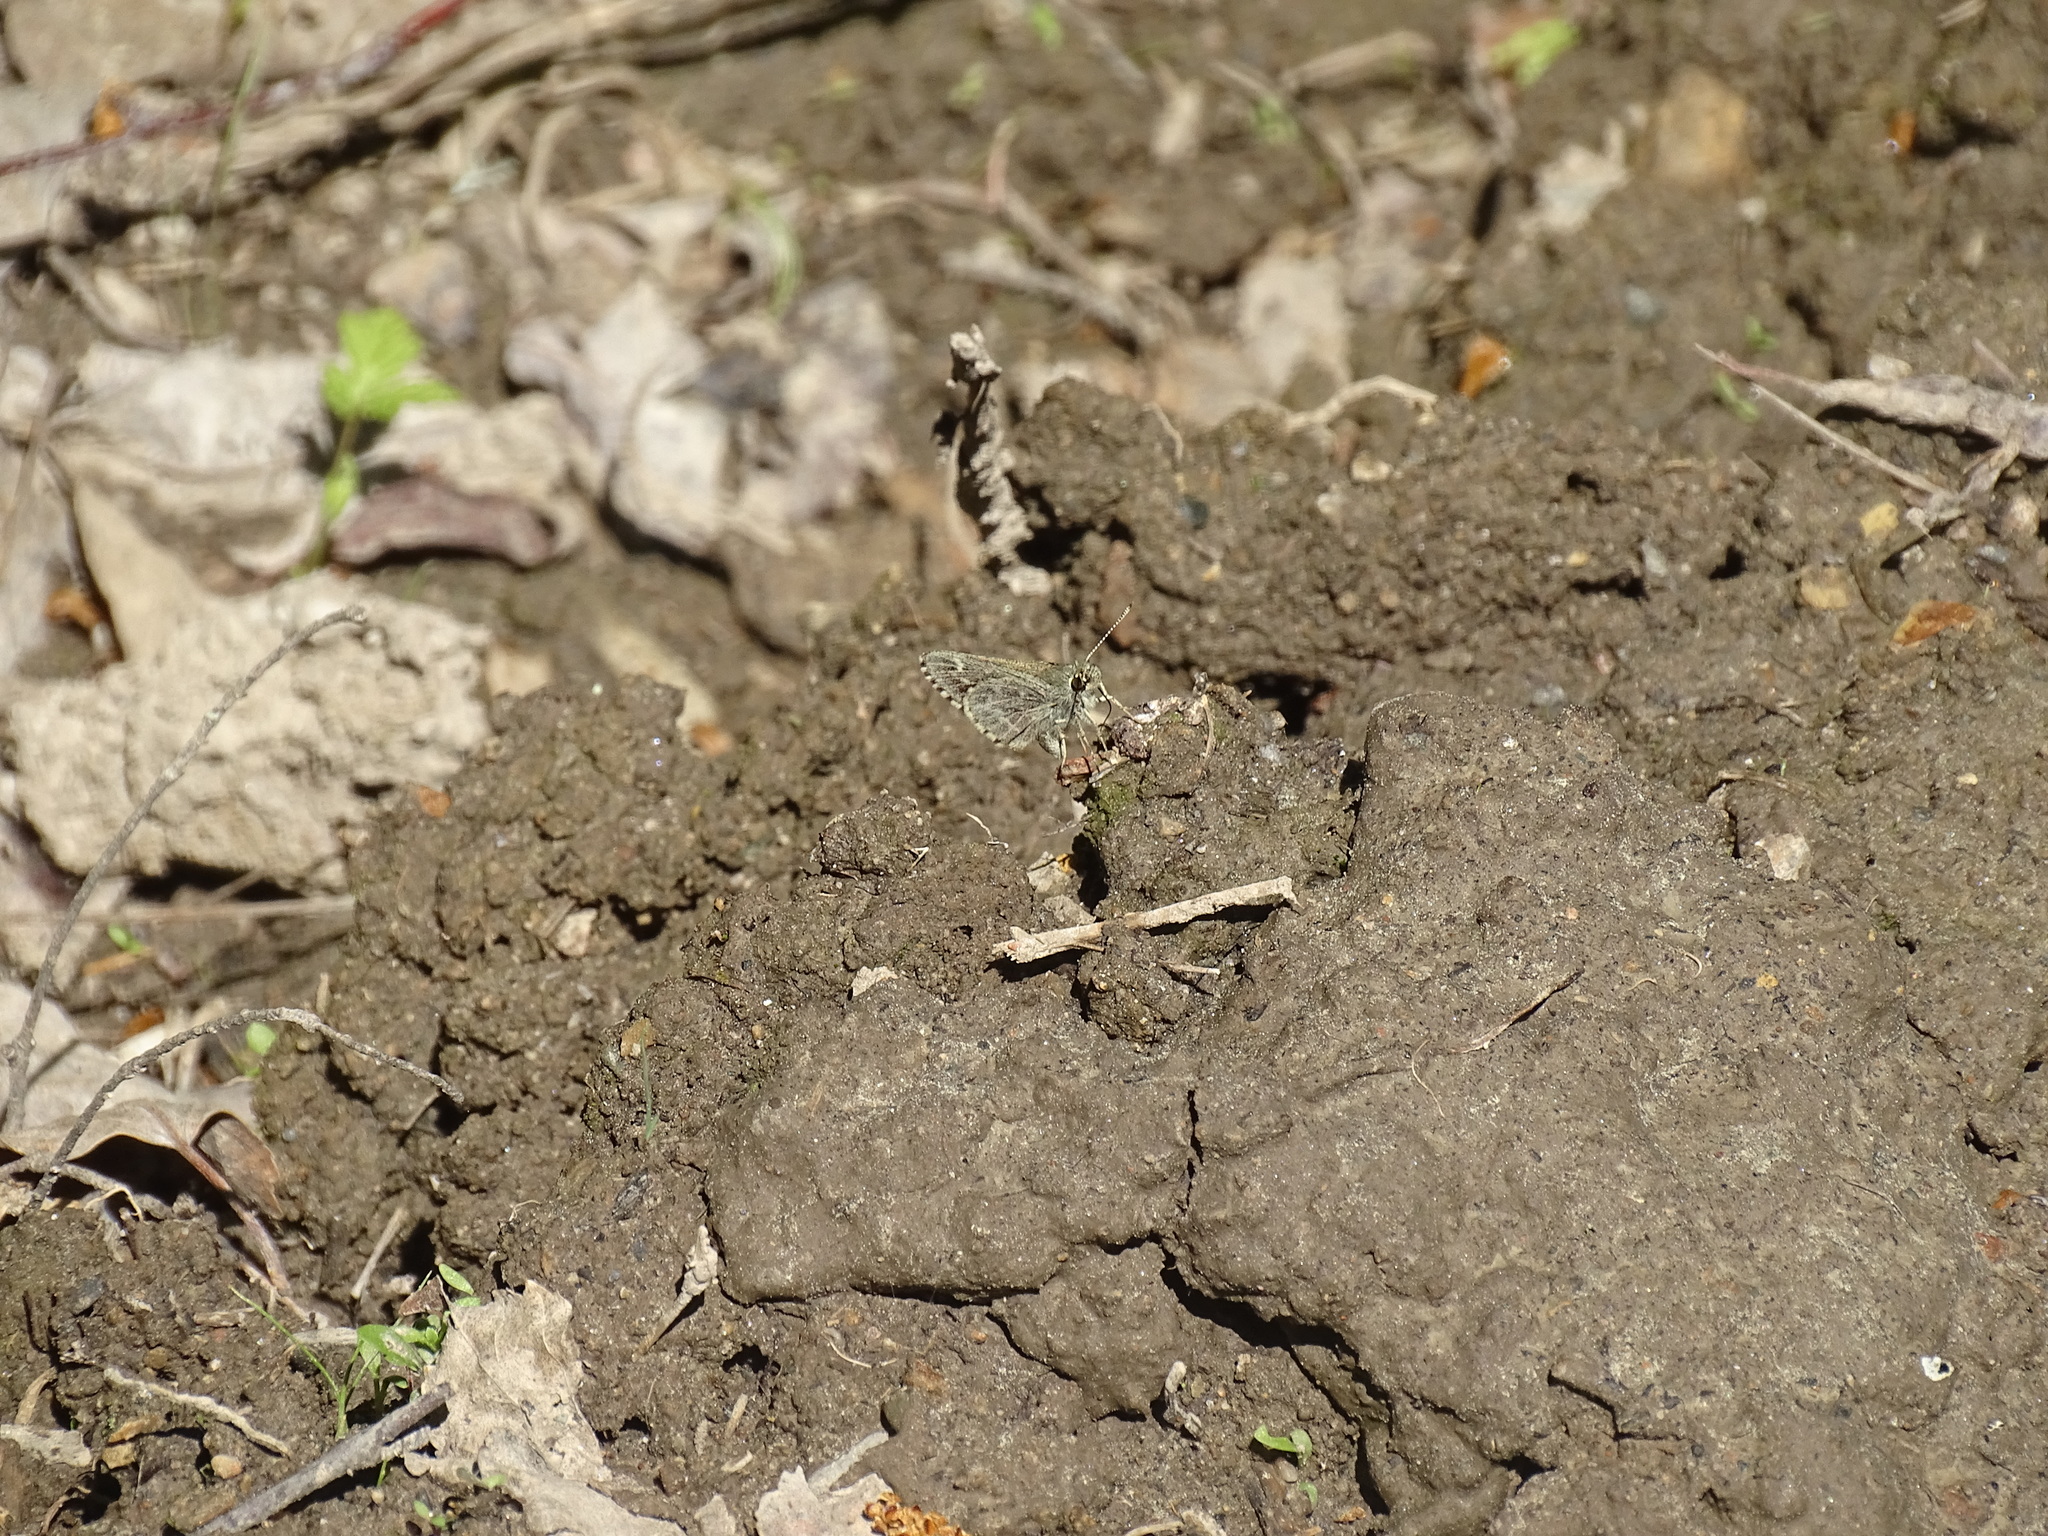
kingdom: Animalia
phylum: Arthropoda
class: Insecta
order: Lepidoptera
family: Hesperiidae
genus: Mastor
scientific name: Mastor hegon
